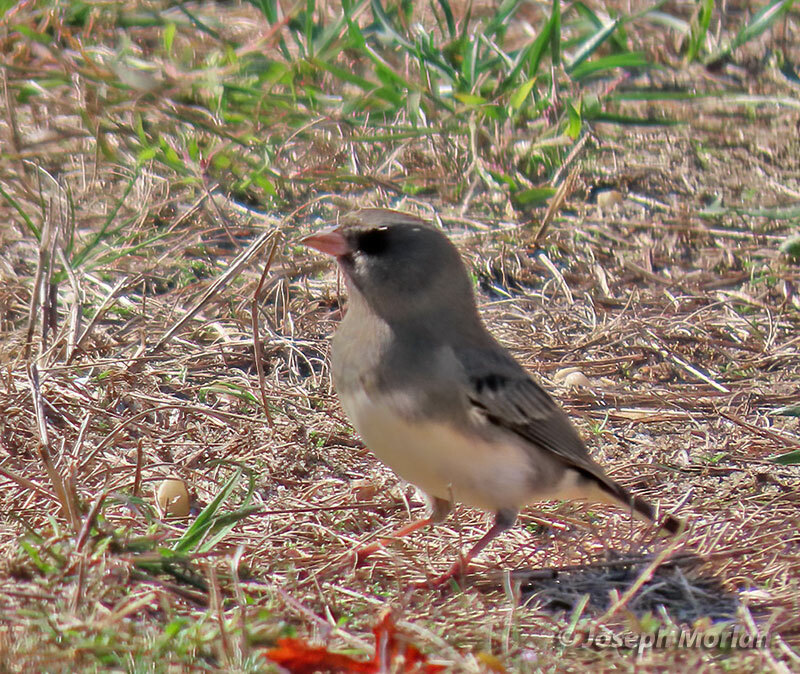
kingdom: Animalia
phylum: Chordata
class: Aves
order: Passeriformes
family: Passerellidae
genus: Junco
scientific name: Junco hyemalis
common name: Dark-eyed junco
